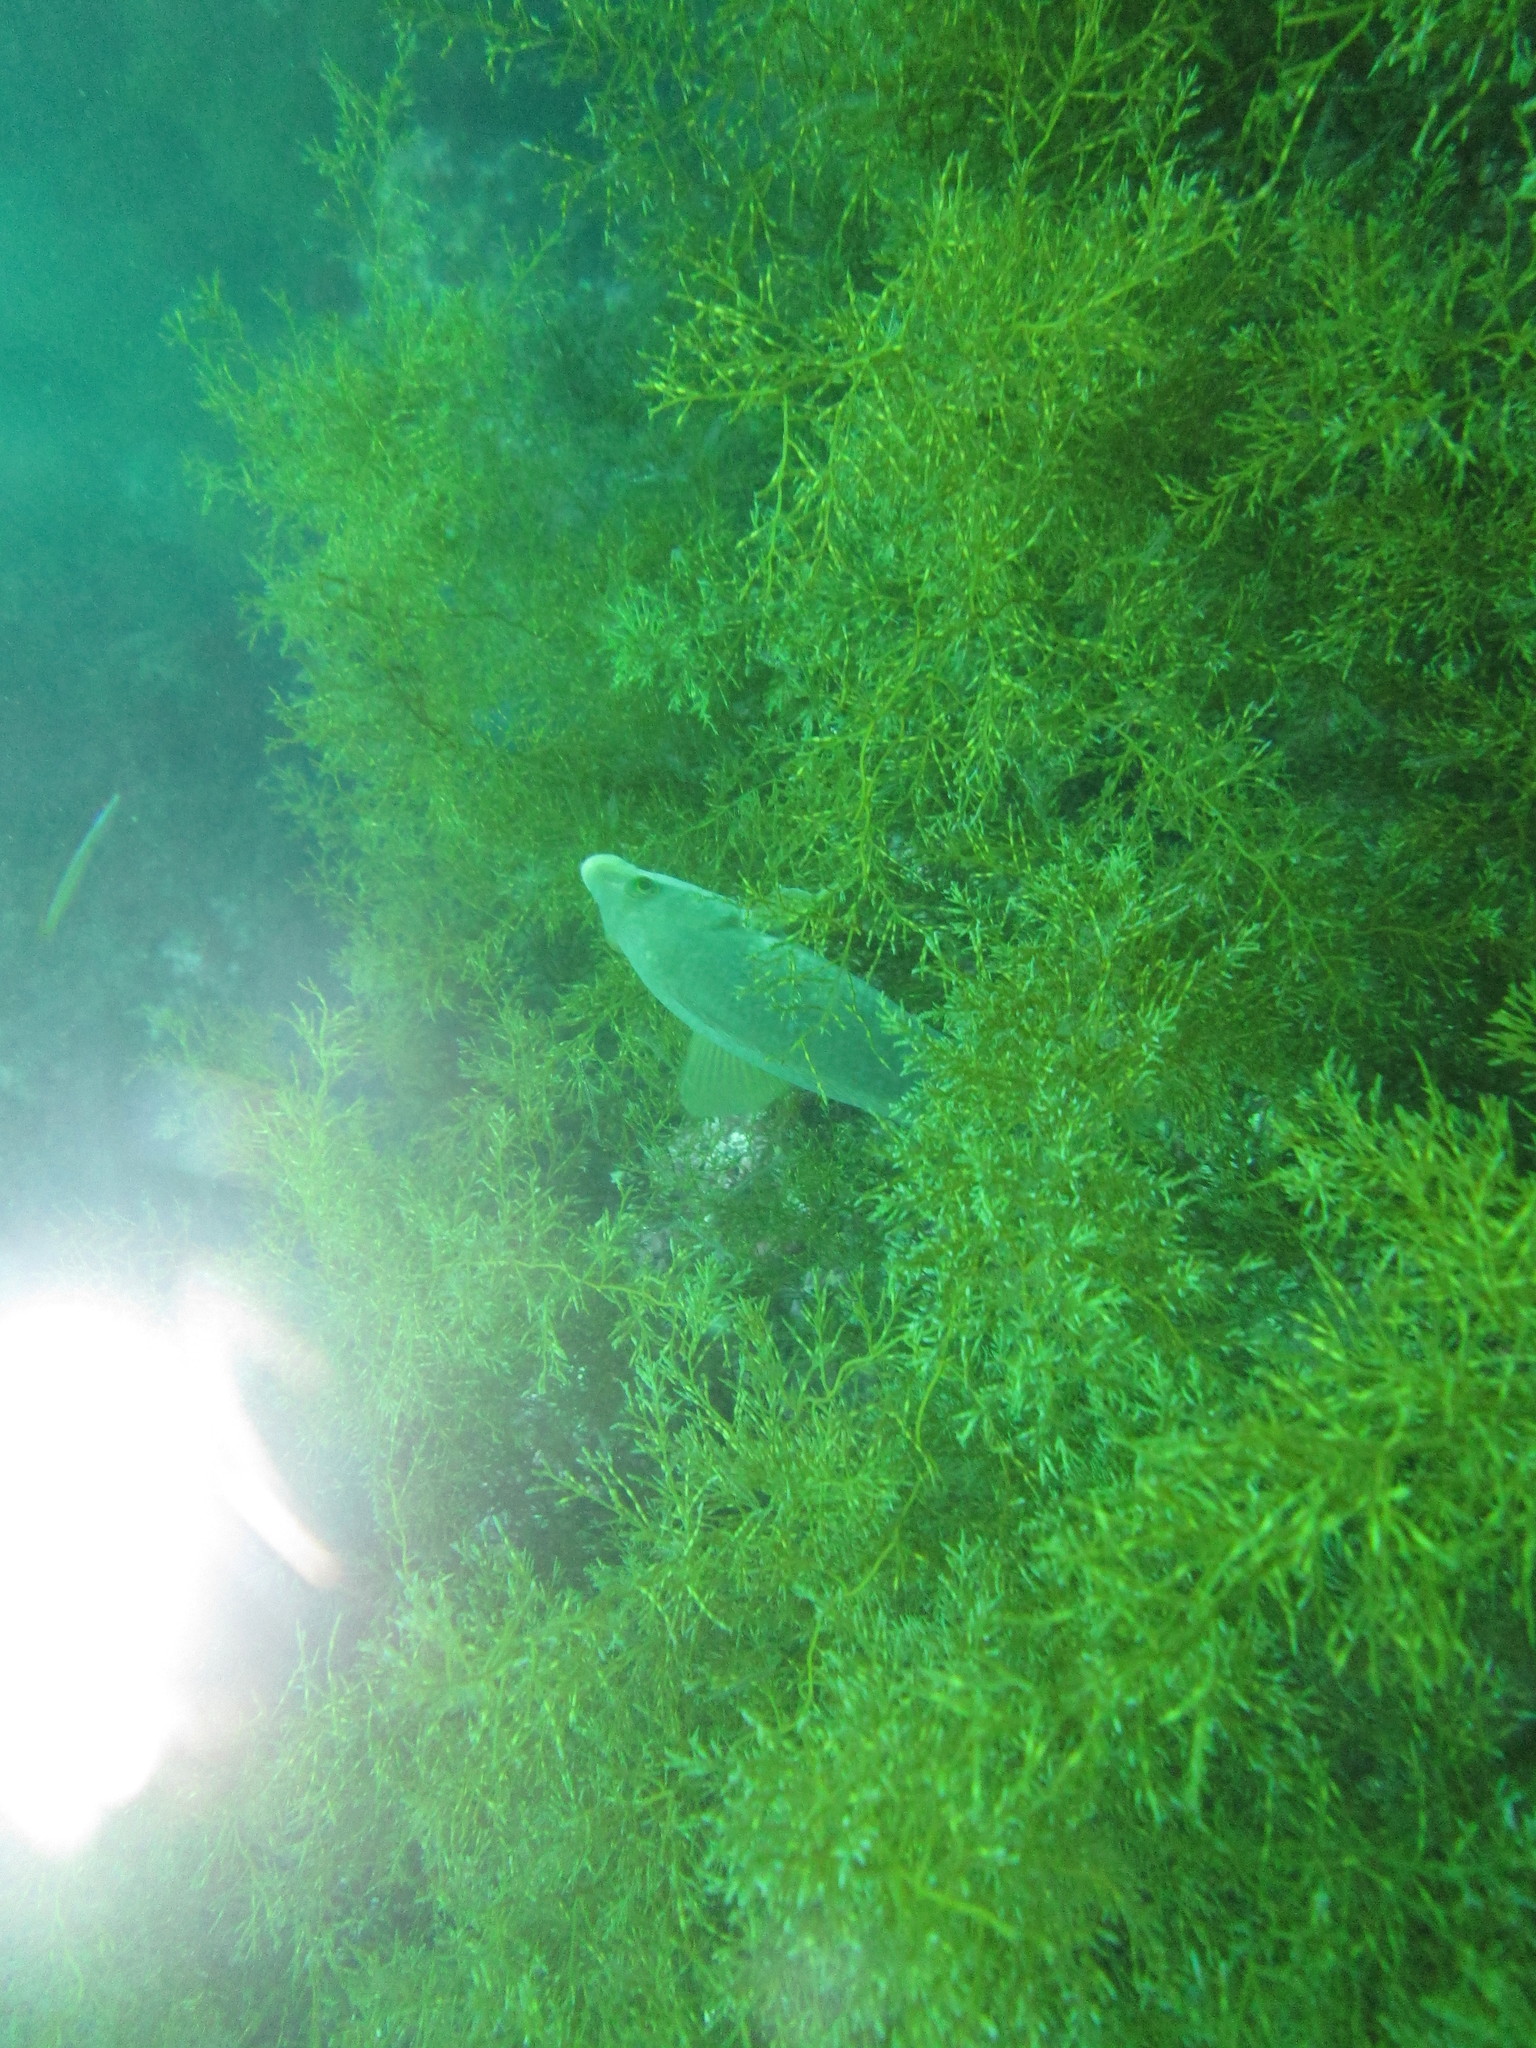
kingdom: Animalia
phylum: Chordata
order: Perciformes
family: Labridae
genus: Labrus
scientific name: Labrus bergylta
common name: Ballan wrasse
